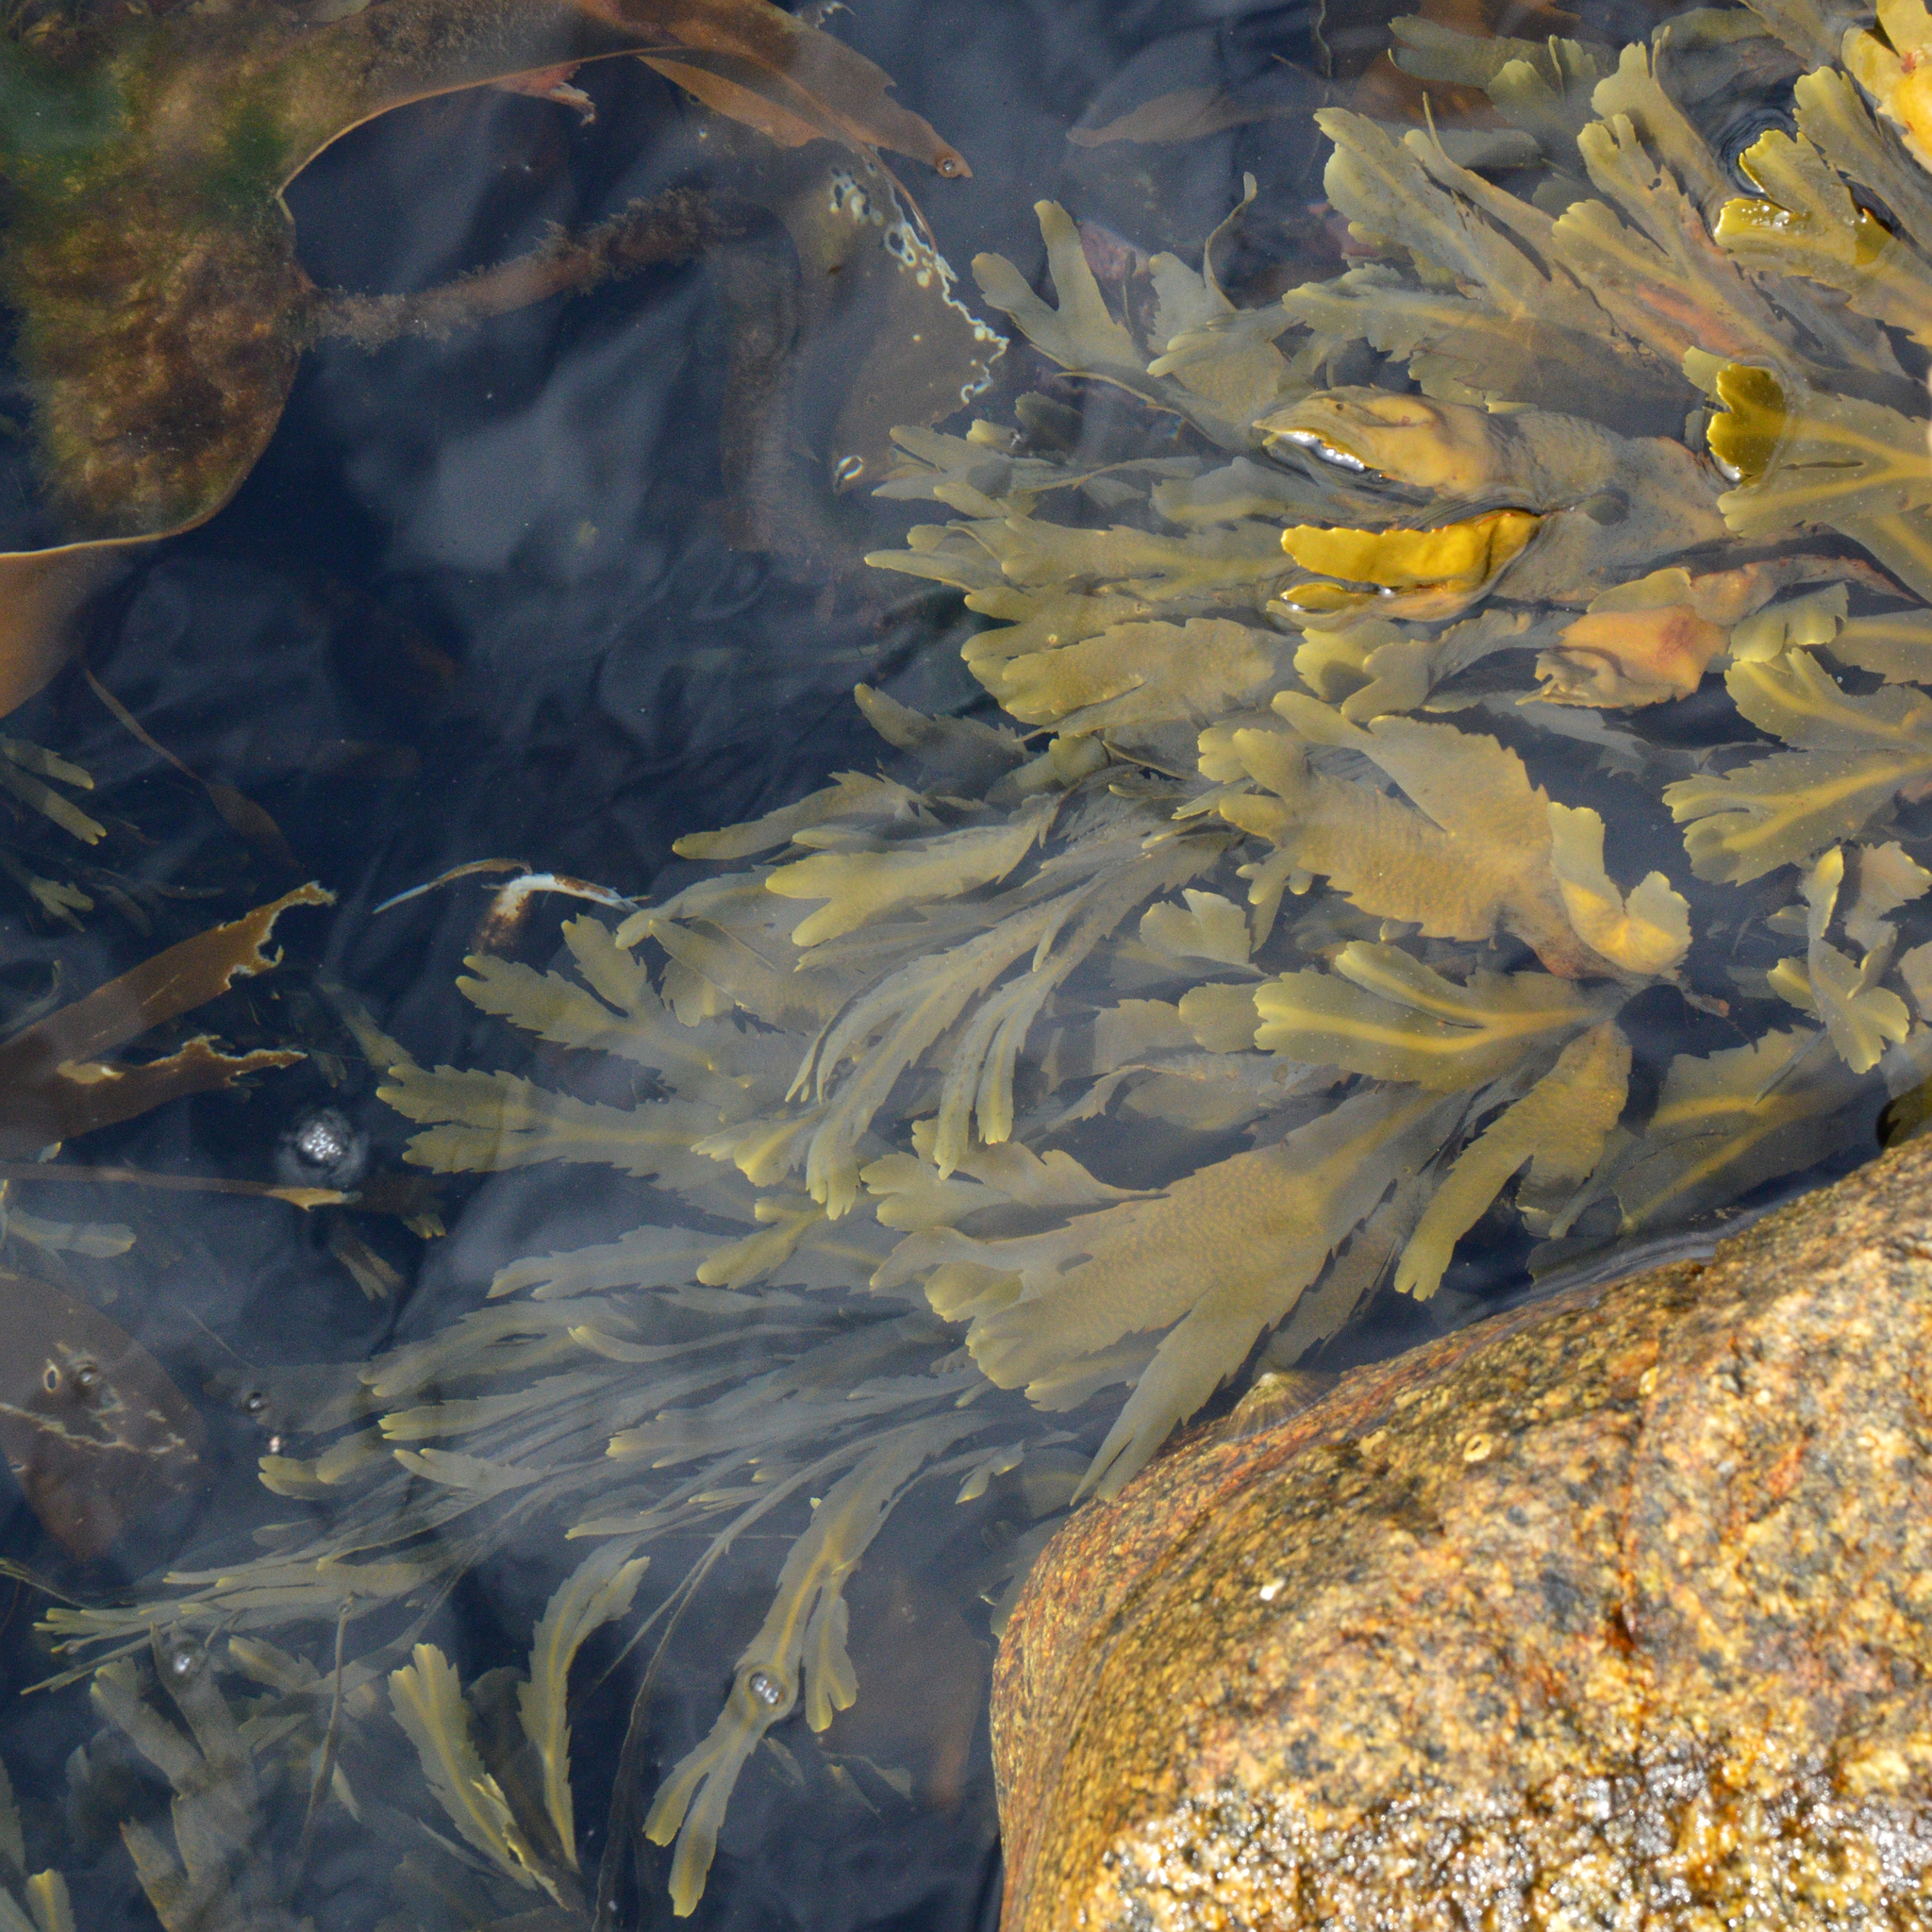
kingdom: Chromista
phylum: Ochrophyta
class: Phaeophyceae
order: Fucales
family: Fucaceae
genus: Fucus
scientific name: Fucus serratus
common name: Toothed wrack
